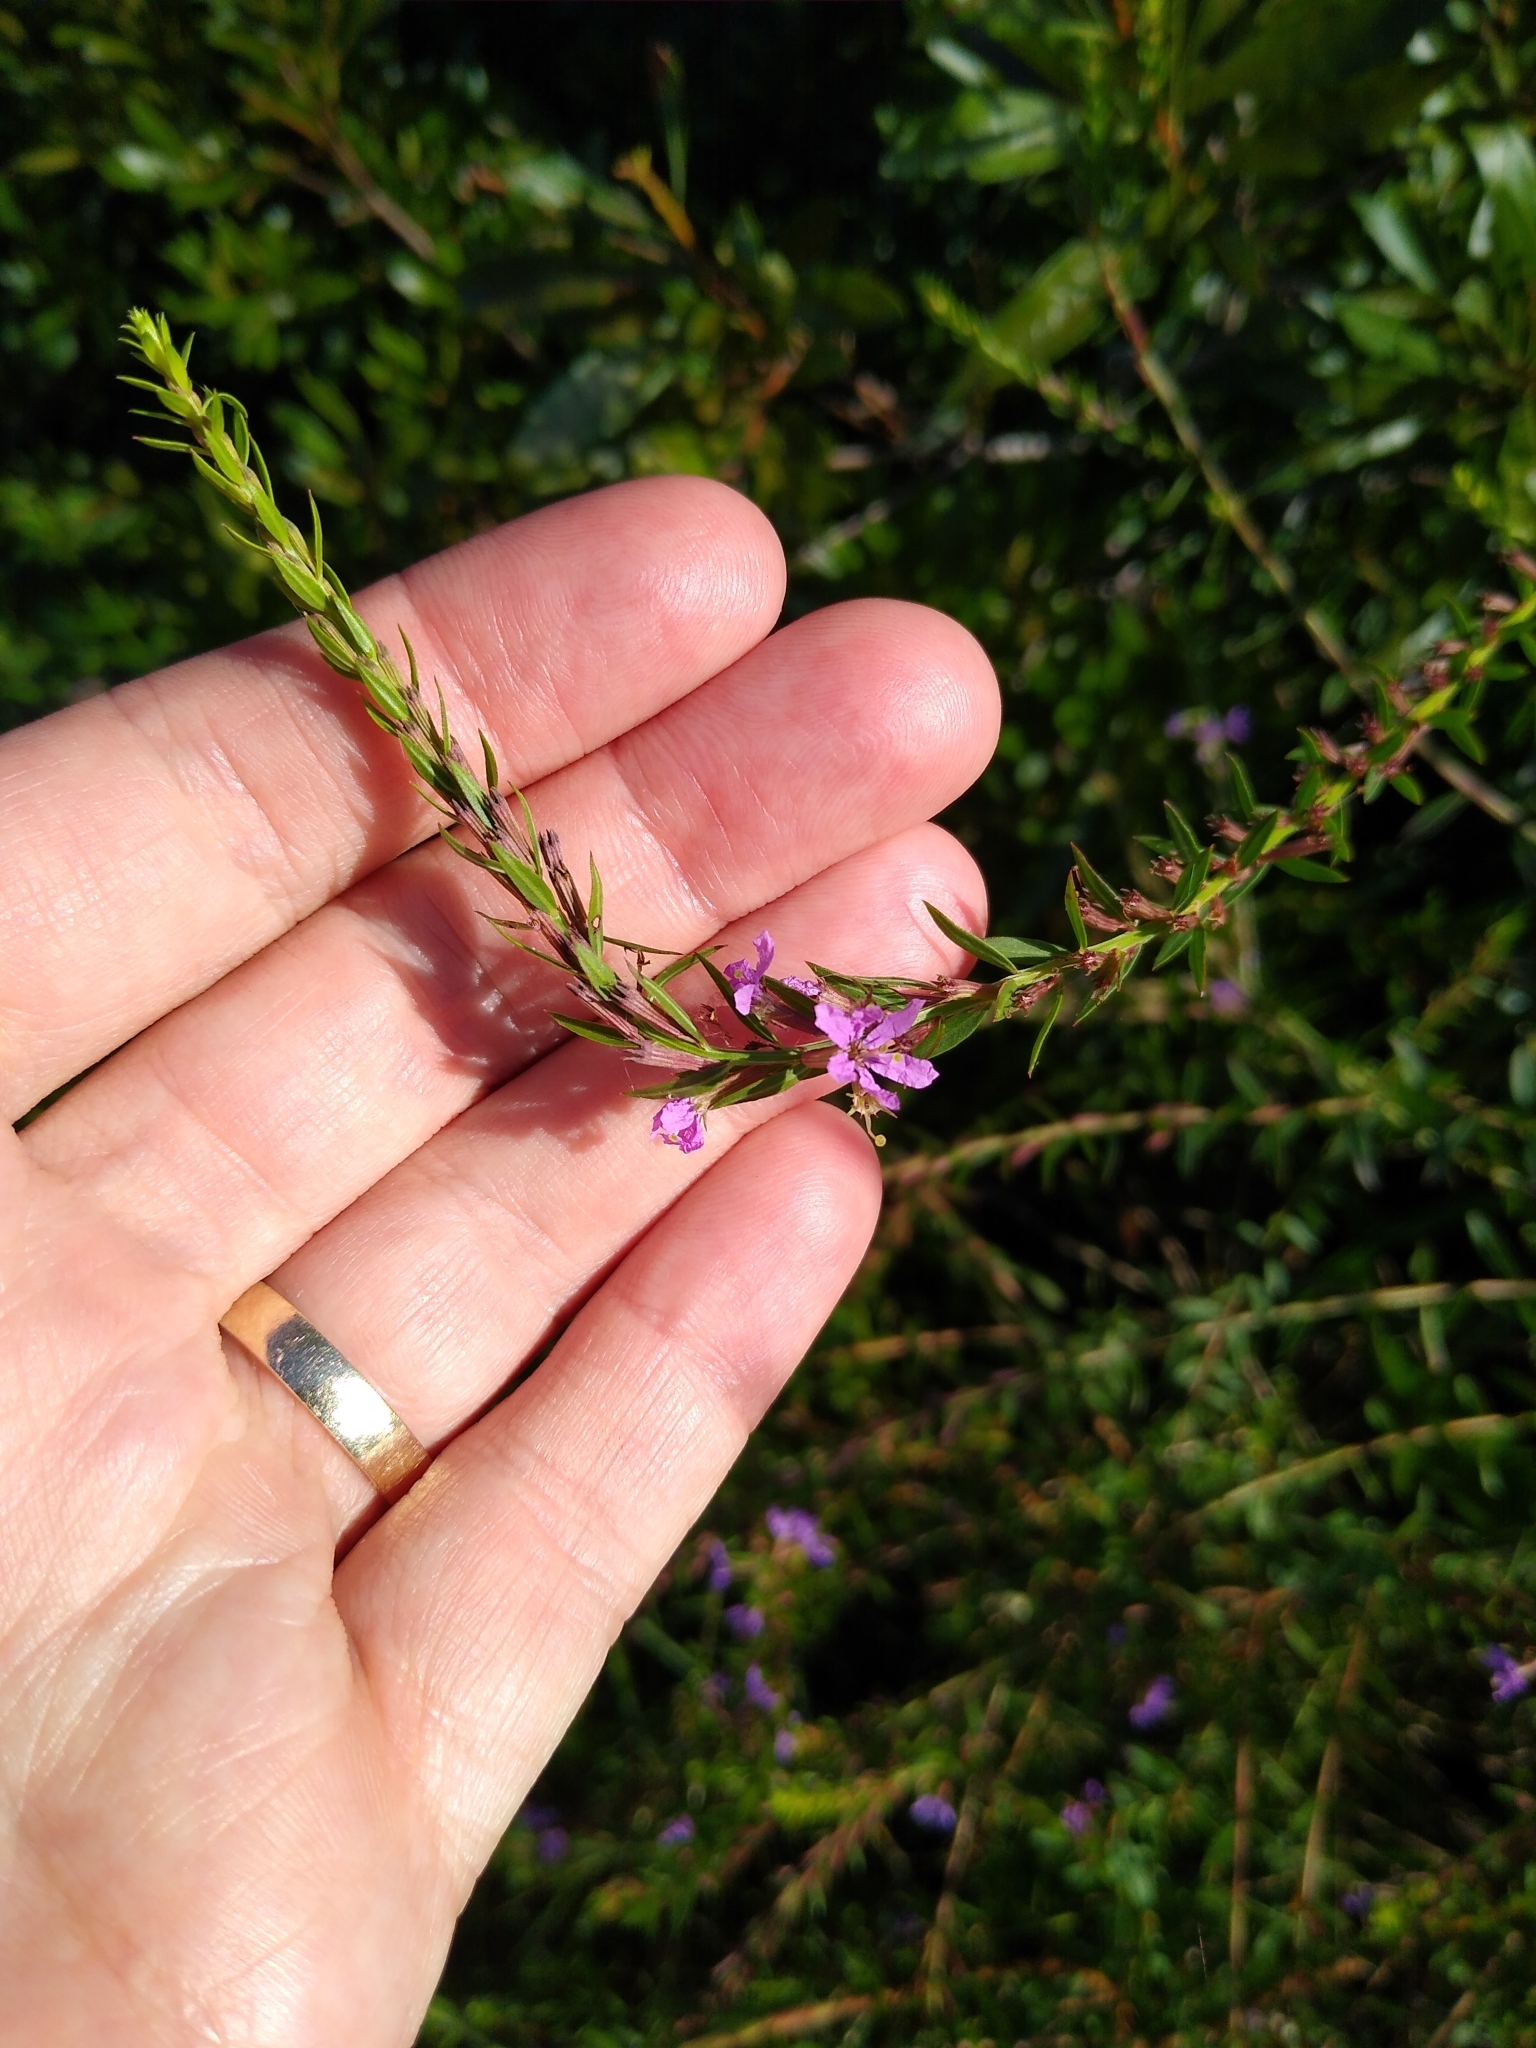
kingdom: Plantae
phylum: Tracheophyta
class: Magnoliopsida
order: Myrtales
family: Lythraceae
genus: Lythrum
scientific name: Lythrum alatum
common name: Winged loosestrife
